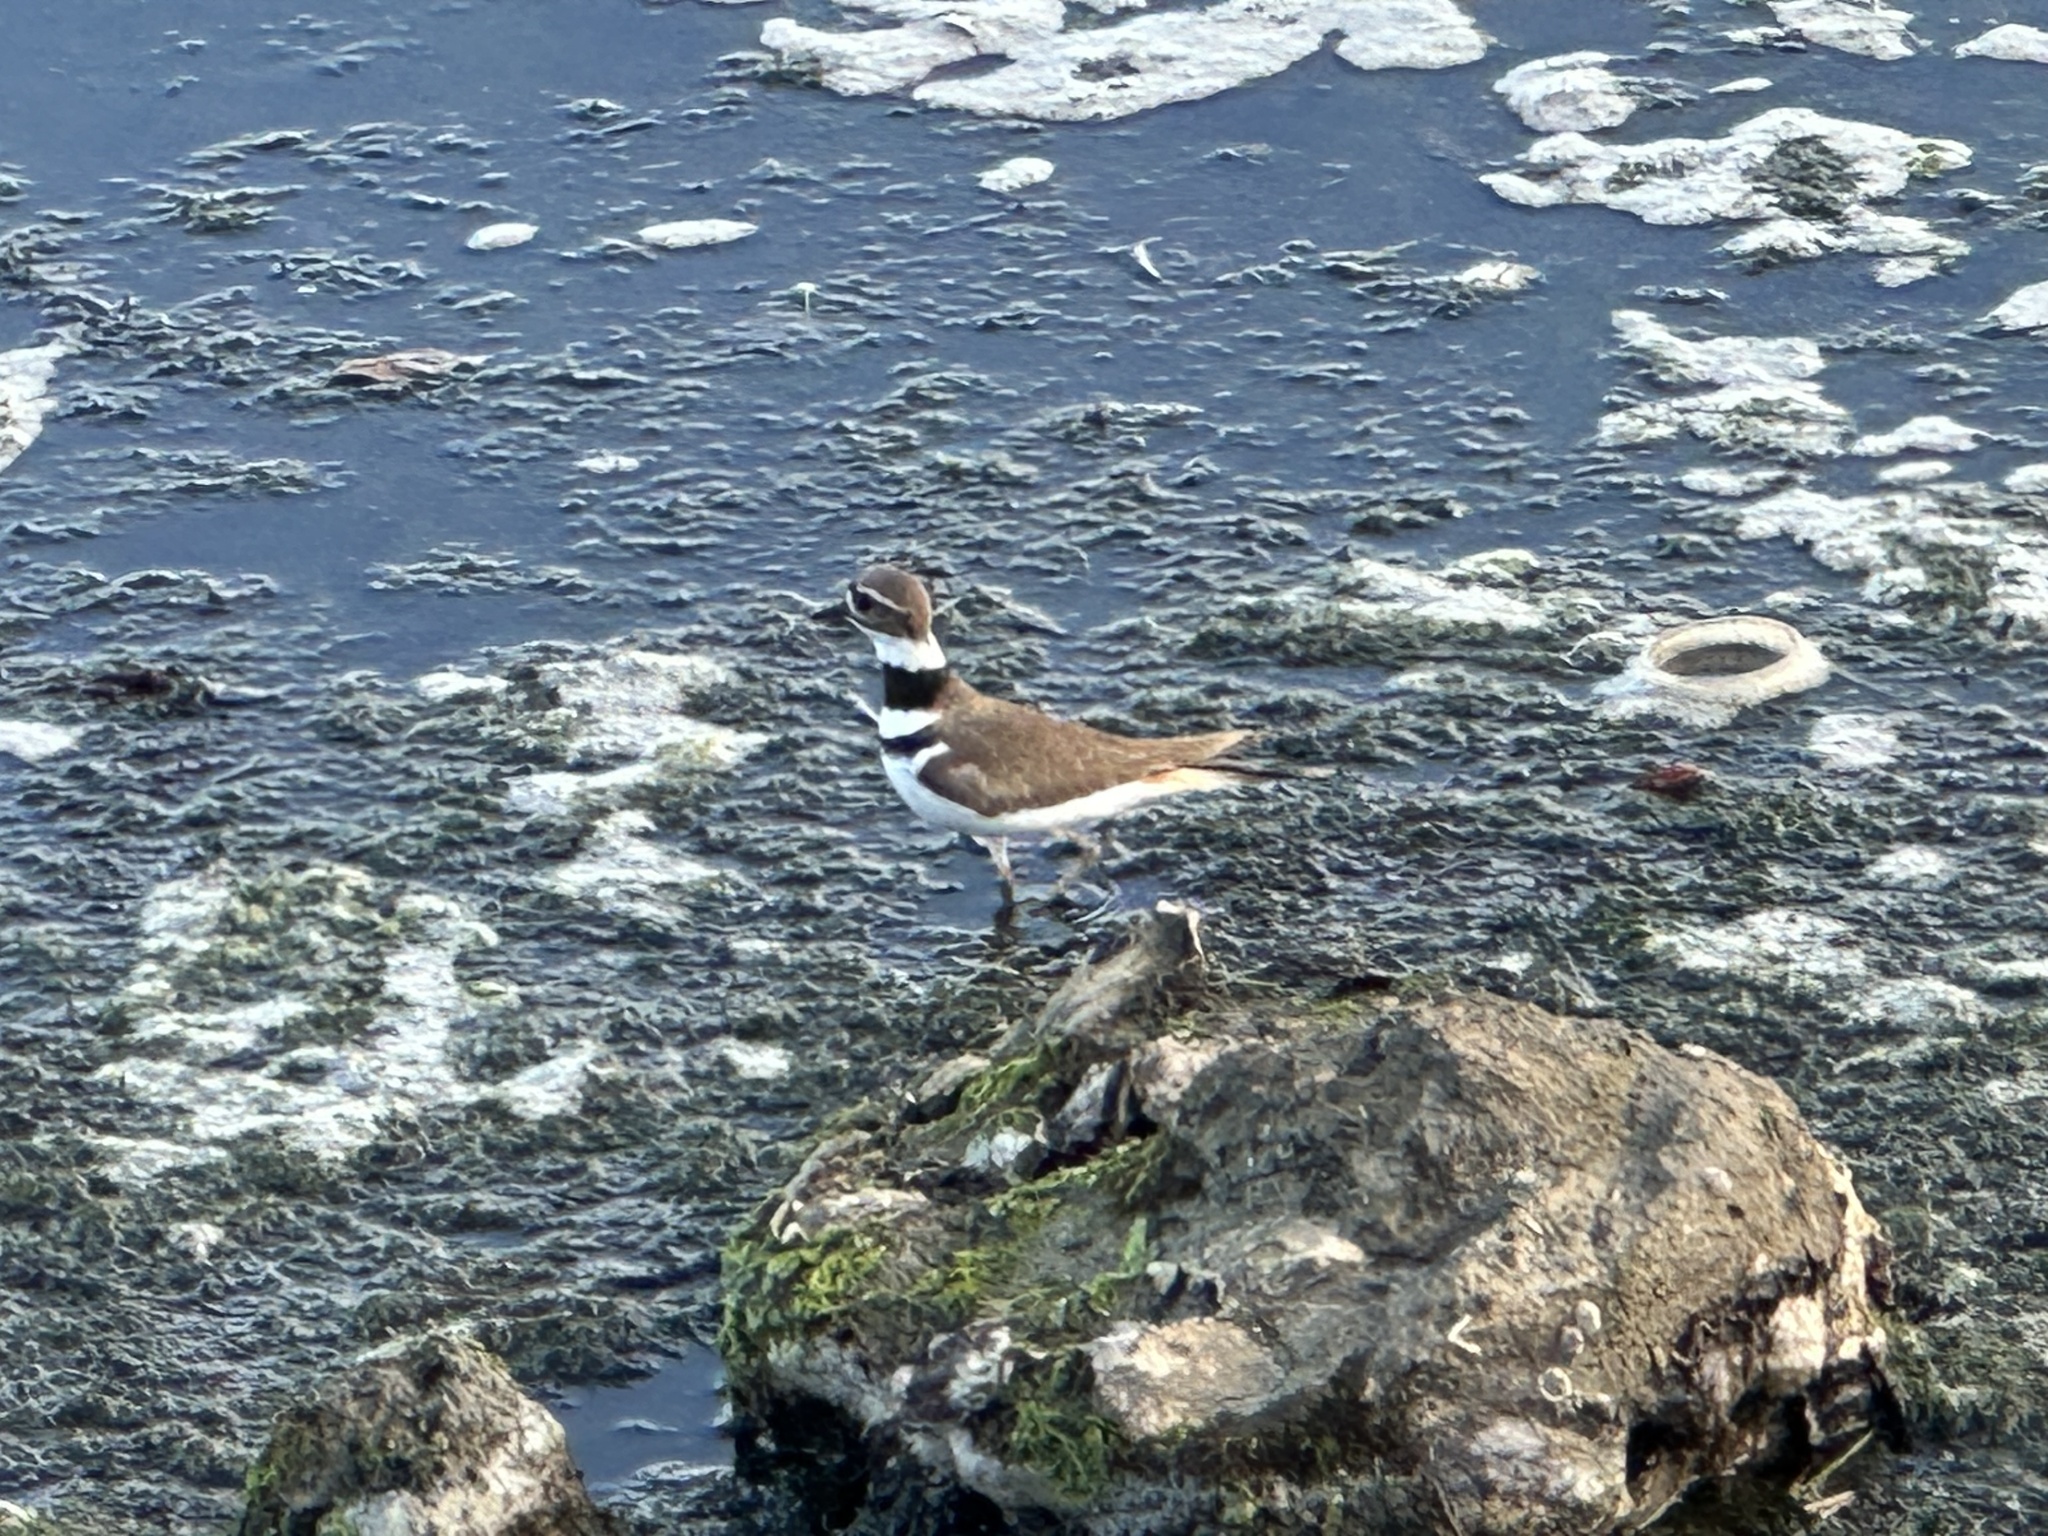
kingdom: Animalia
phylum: Chordata
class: Aves
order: Charadriiformes
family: Charadriidae
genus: Charadrius
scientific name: Charadrius vociferus
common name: Killdeer
